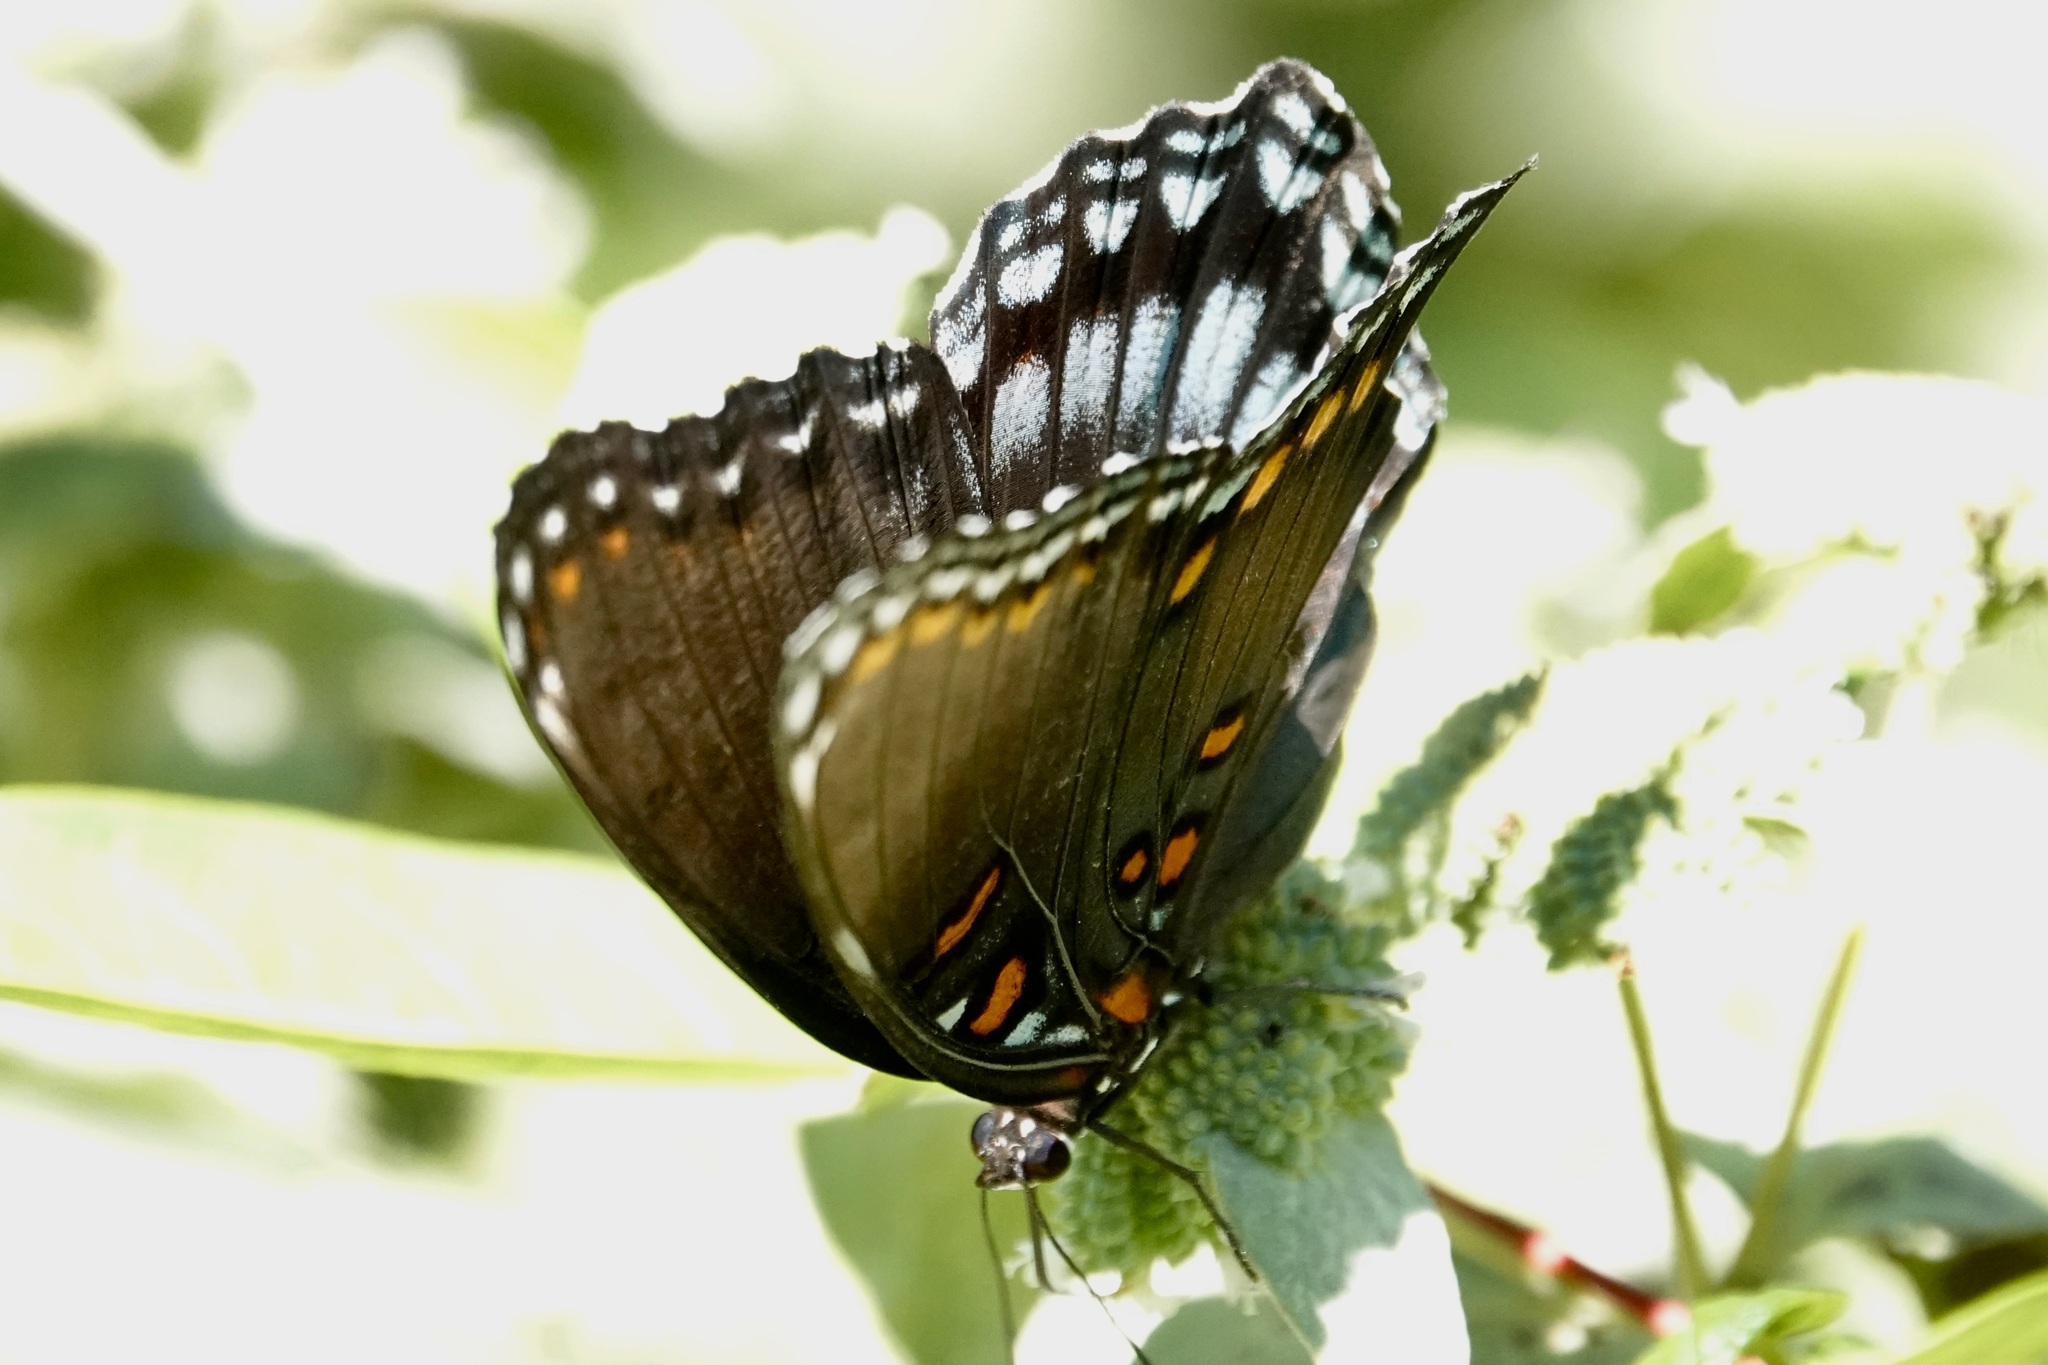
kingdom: Animalia
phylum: Arthropoda
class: Insecta
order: Lepidoptera
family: Nymphalidae
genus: Limenitis
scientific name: Limenitis astyanax
